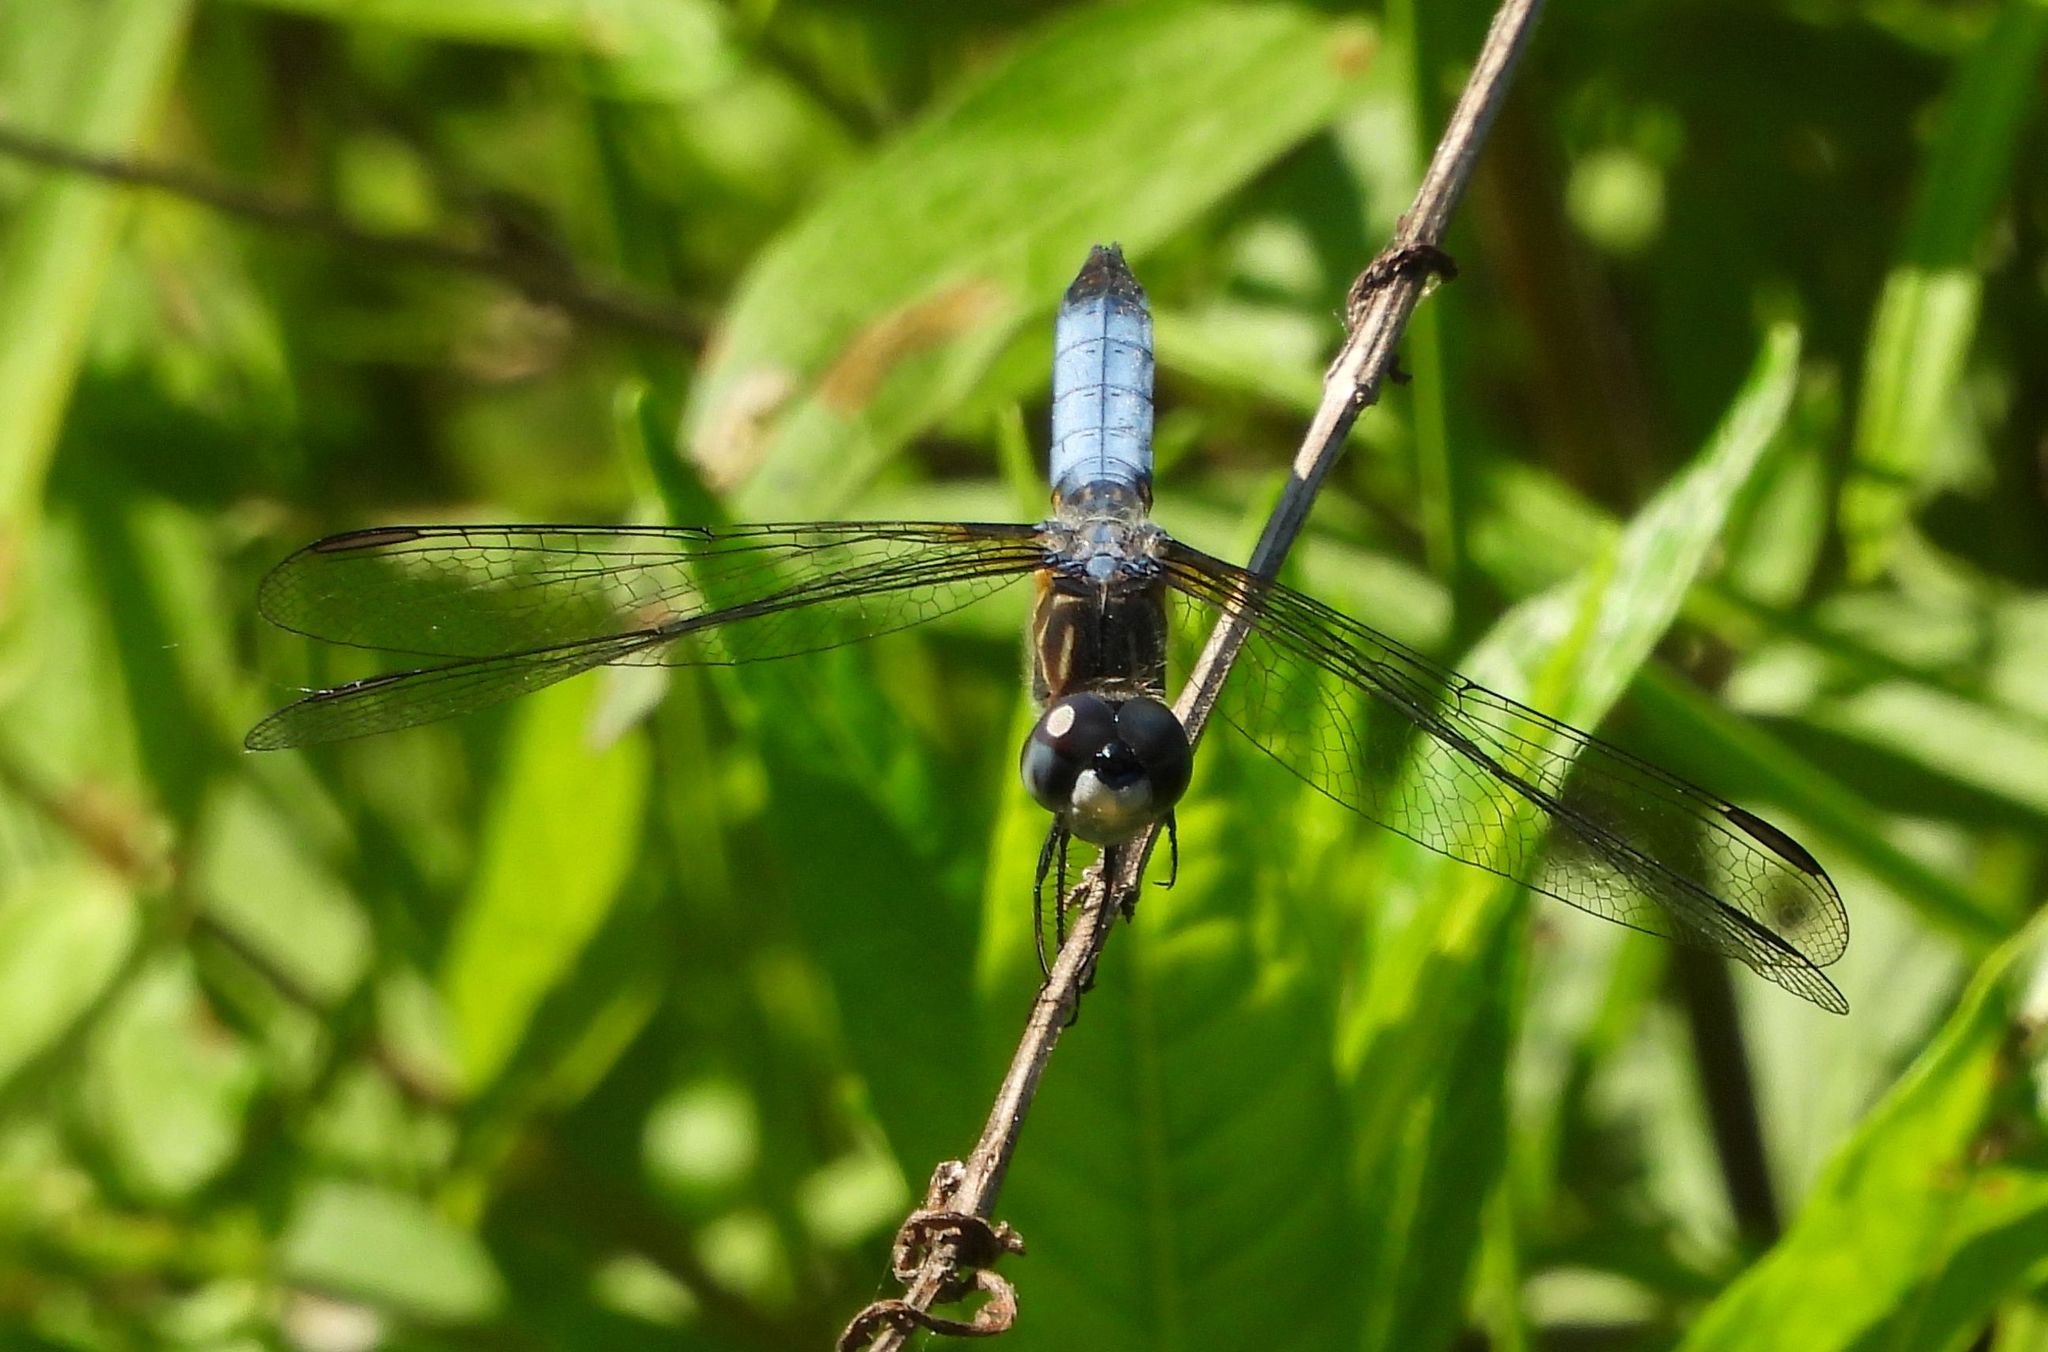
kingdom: Animalia
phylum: Arthropoda
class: Insecta
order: Odonata
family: Libellulidae
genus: Pachydiplax
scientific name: Pachydiplax longipennis
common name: Blue dasher
